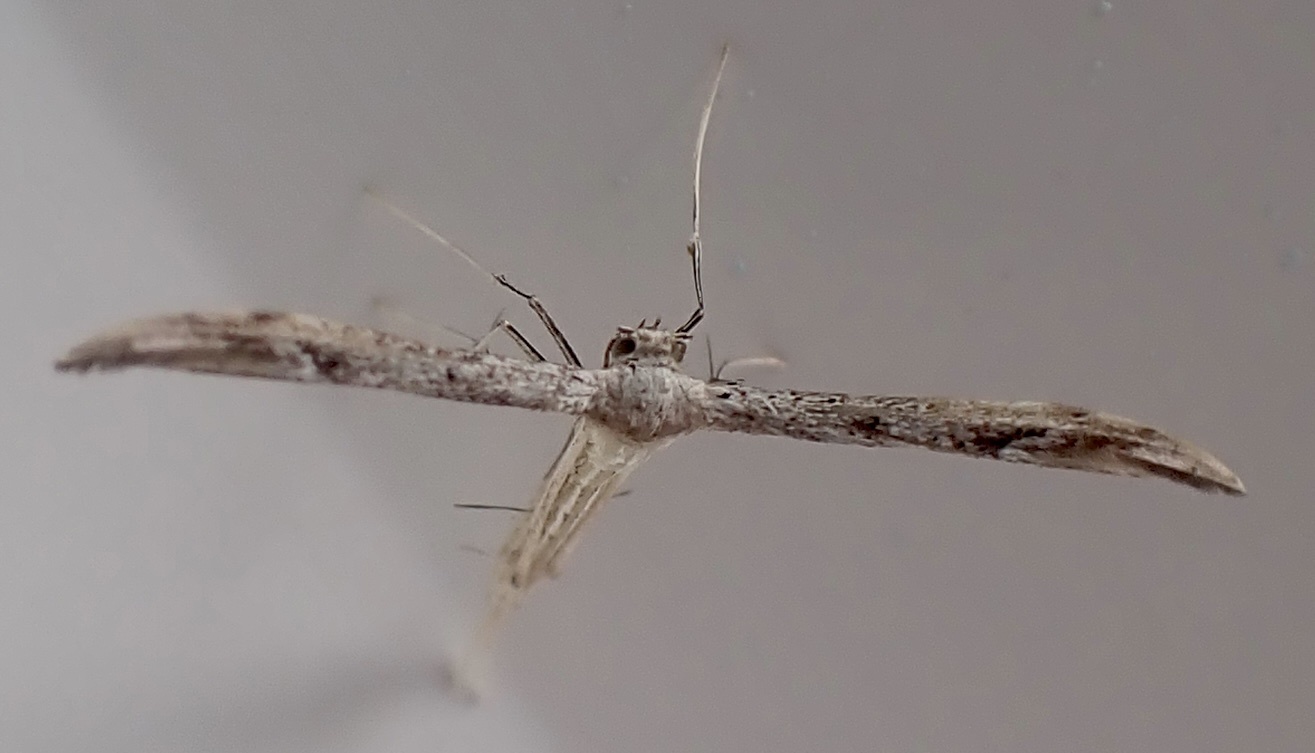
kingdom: Animalia
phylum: Arthropoda
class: Insecta
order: Lepidoptera
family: Pterophoridae
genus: Pselnophorus
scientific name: Pselnophorus belfragei
